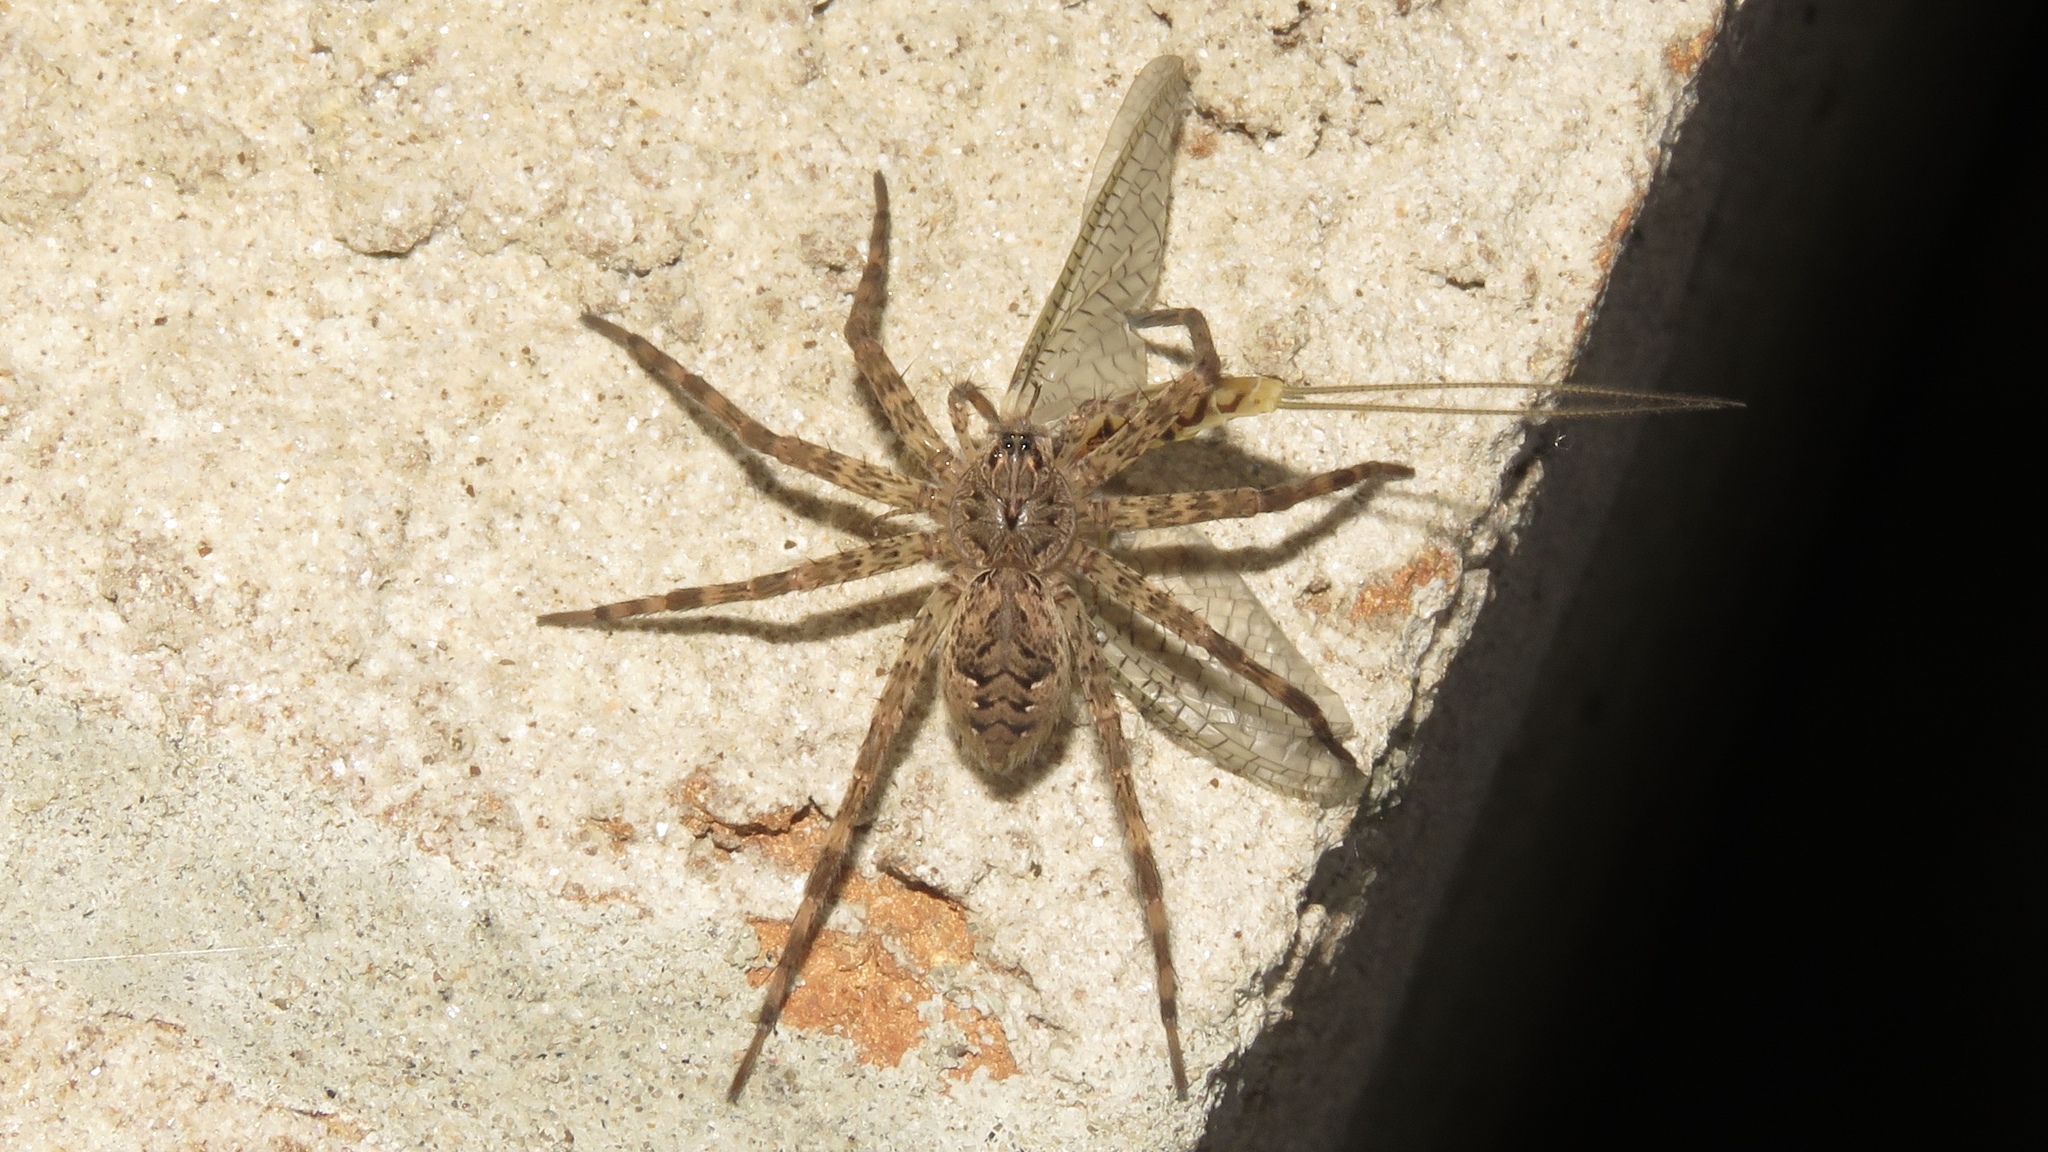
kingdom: Animalia
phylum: Arthropoda
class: Arachnida
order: Araneae
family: Pisauridae
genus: Dolomedes
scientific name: Dolomedes tenebrosus
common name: Dark fishing spider
